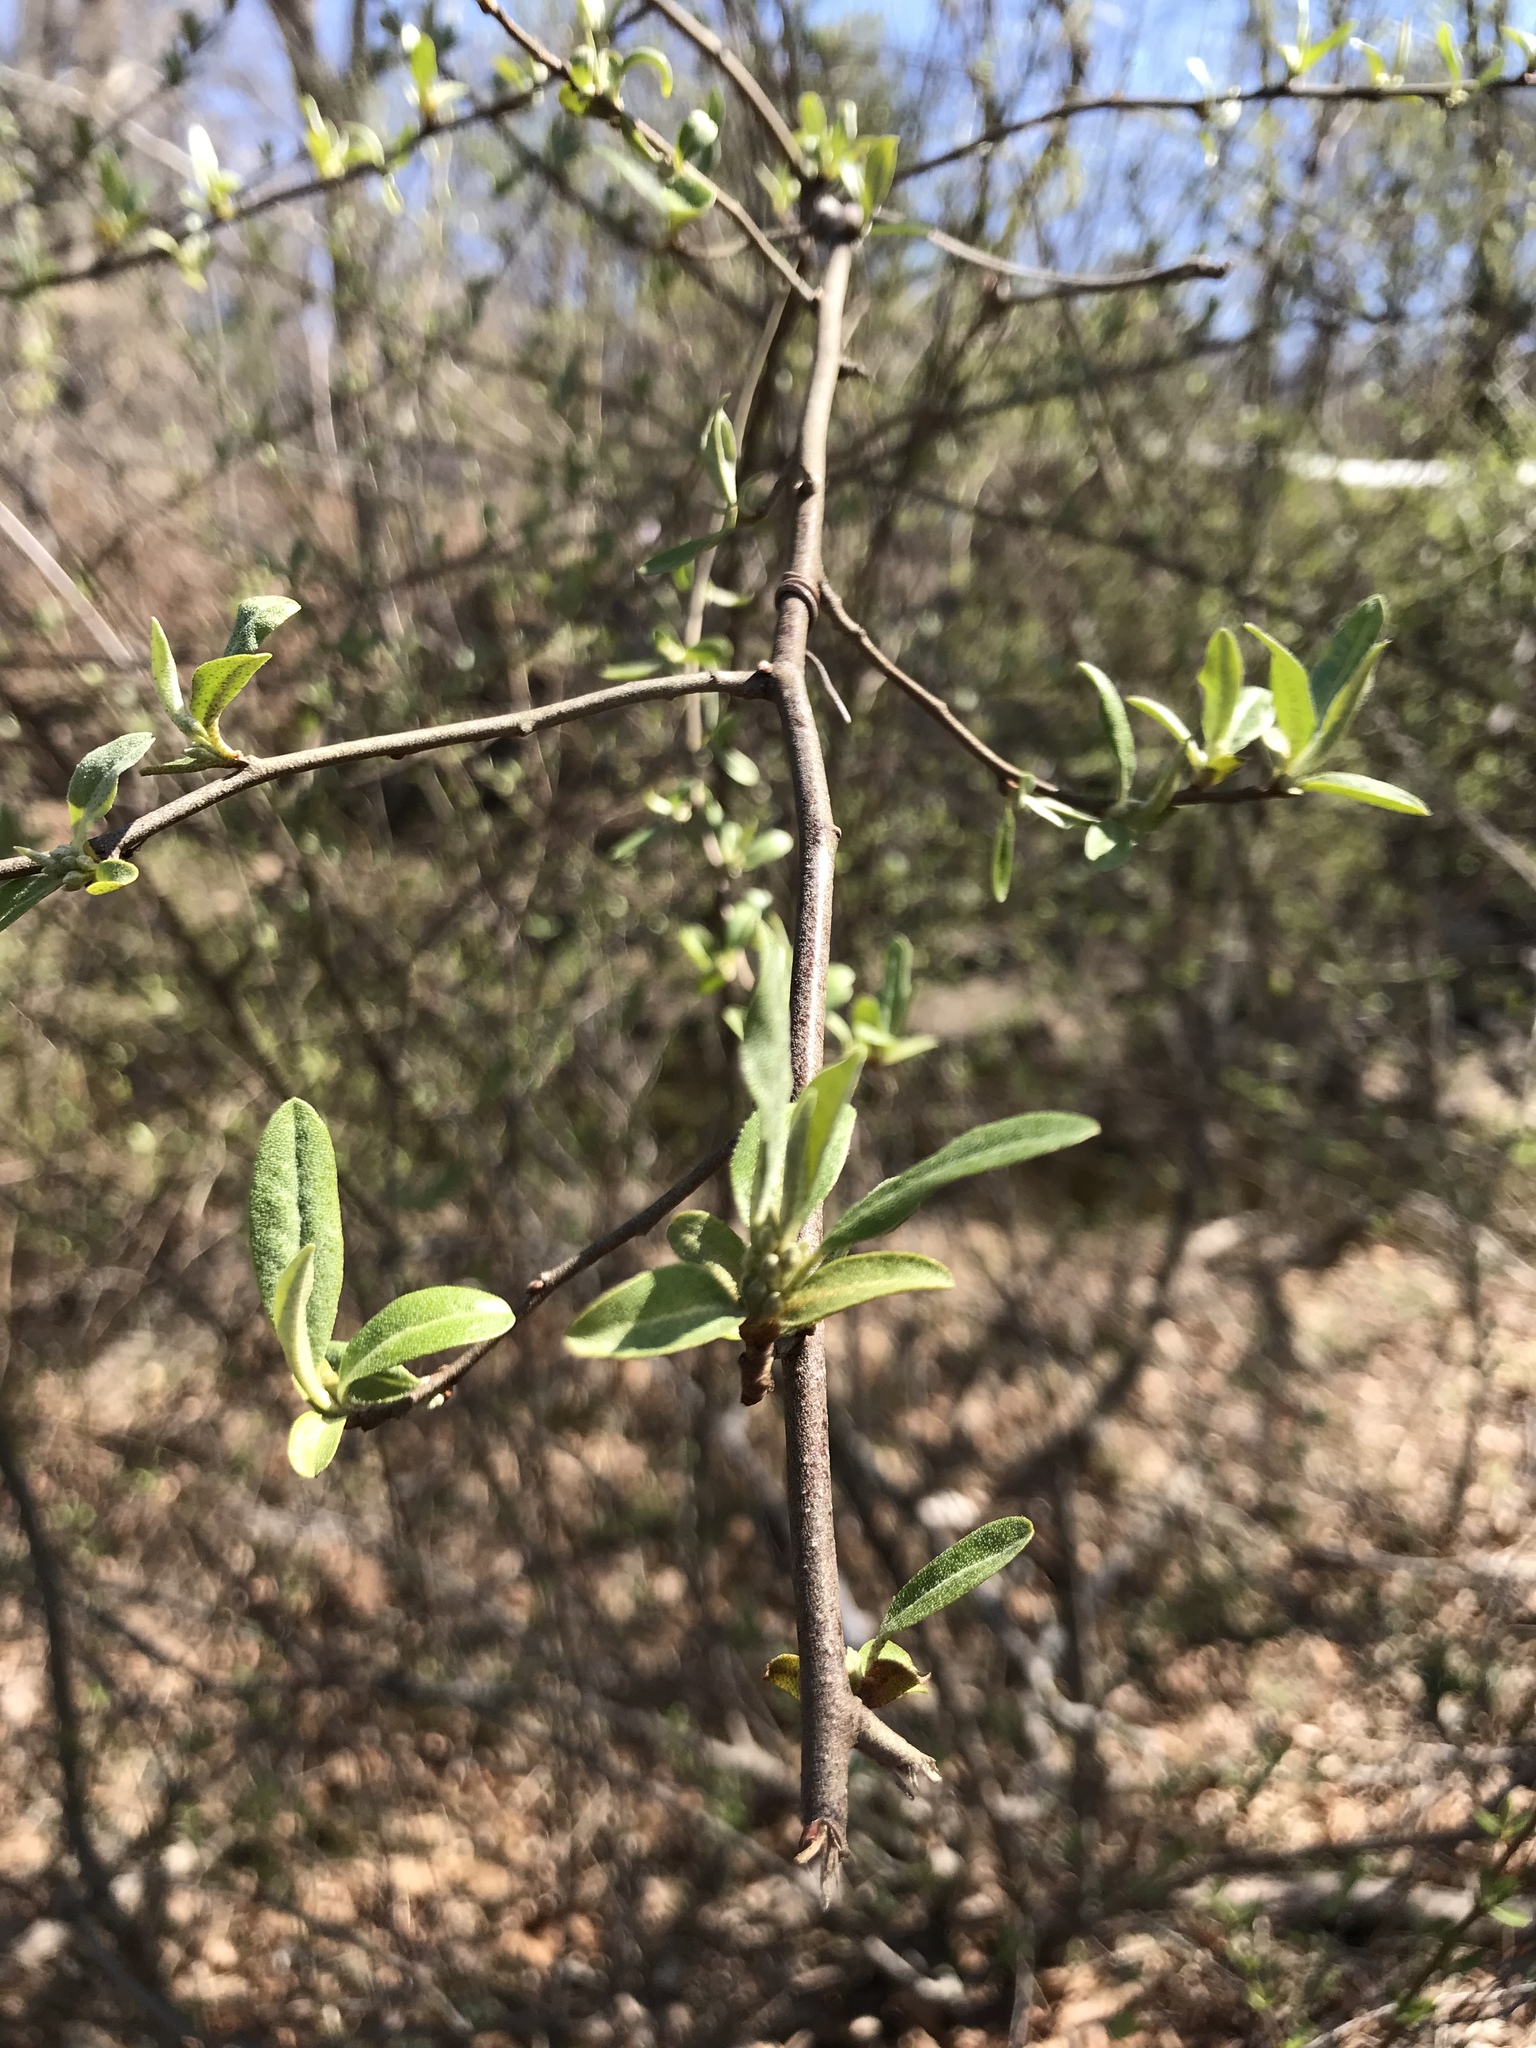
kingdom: Plantae
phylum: Tracheophyta
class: Magnoliopsida
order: Rosales
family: Elaeagnaceae
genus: Elaeagnus
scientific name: Elaeagnus umbellata
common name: Autumn olive
